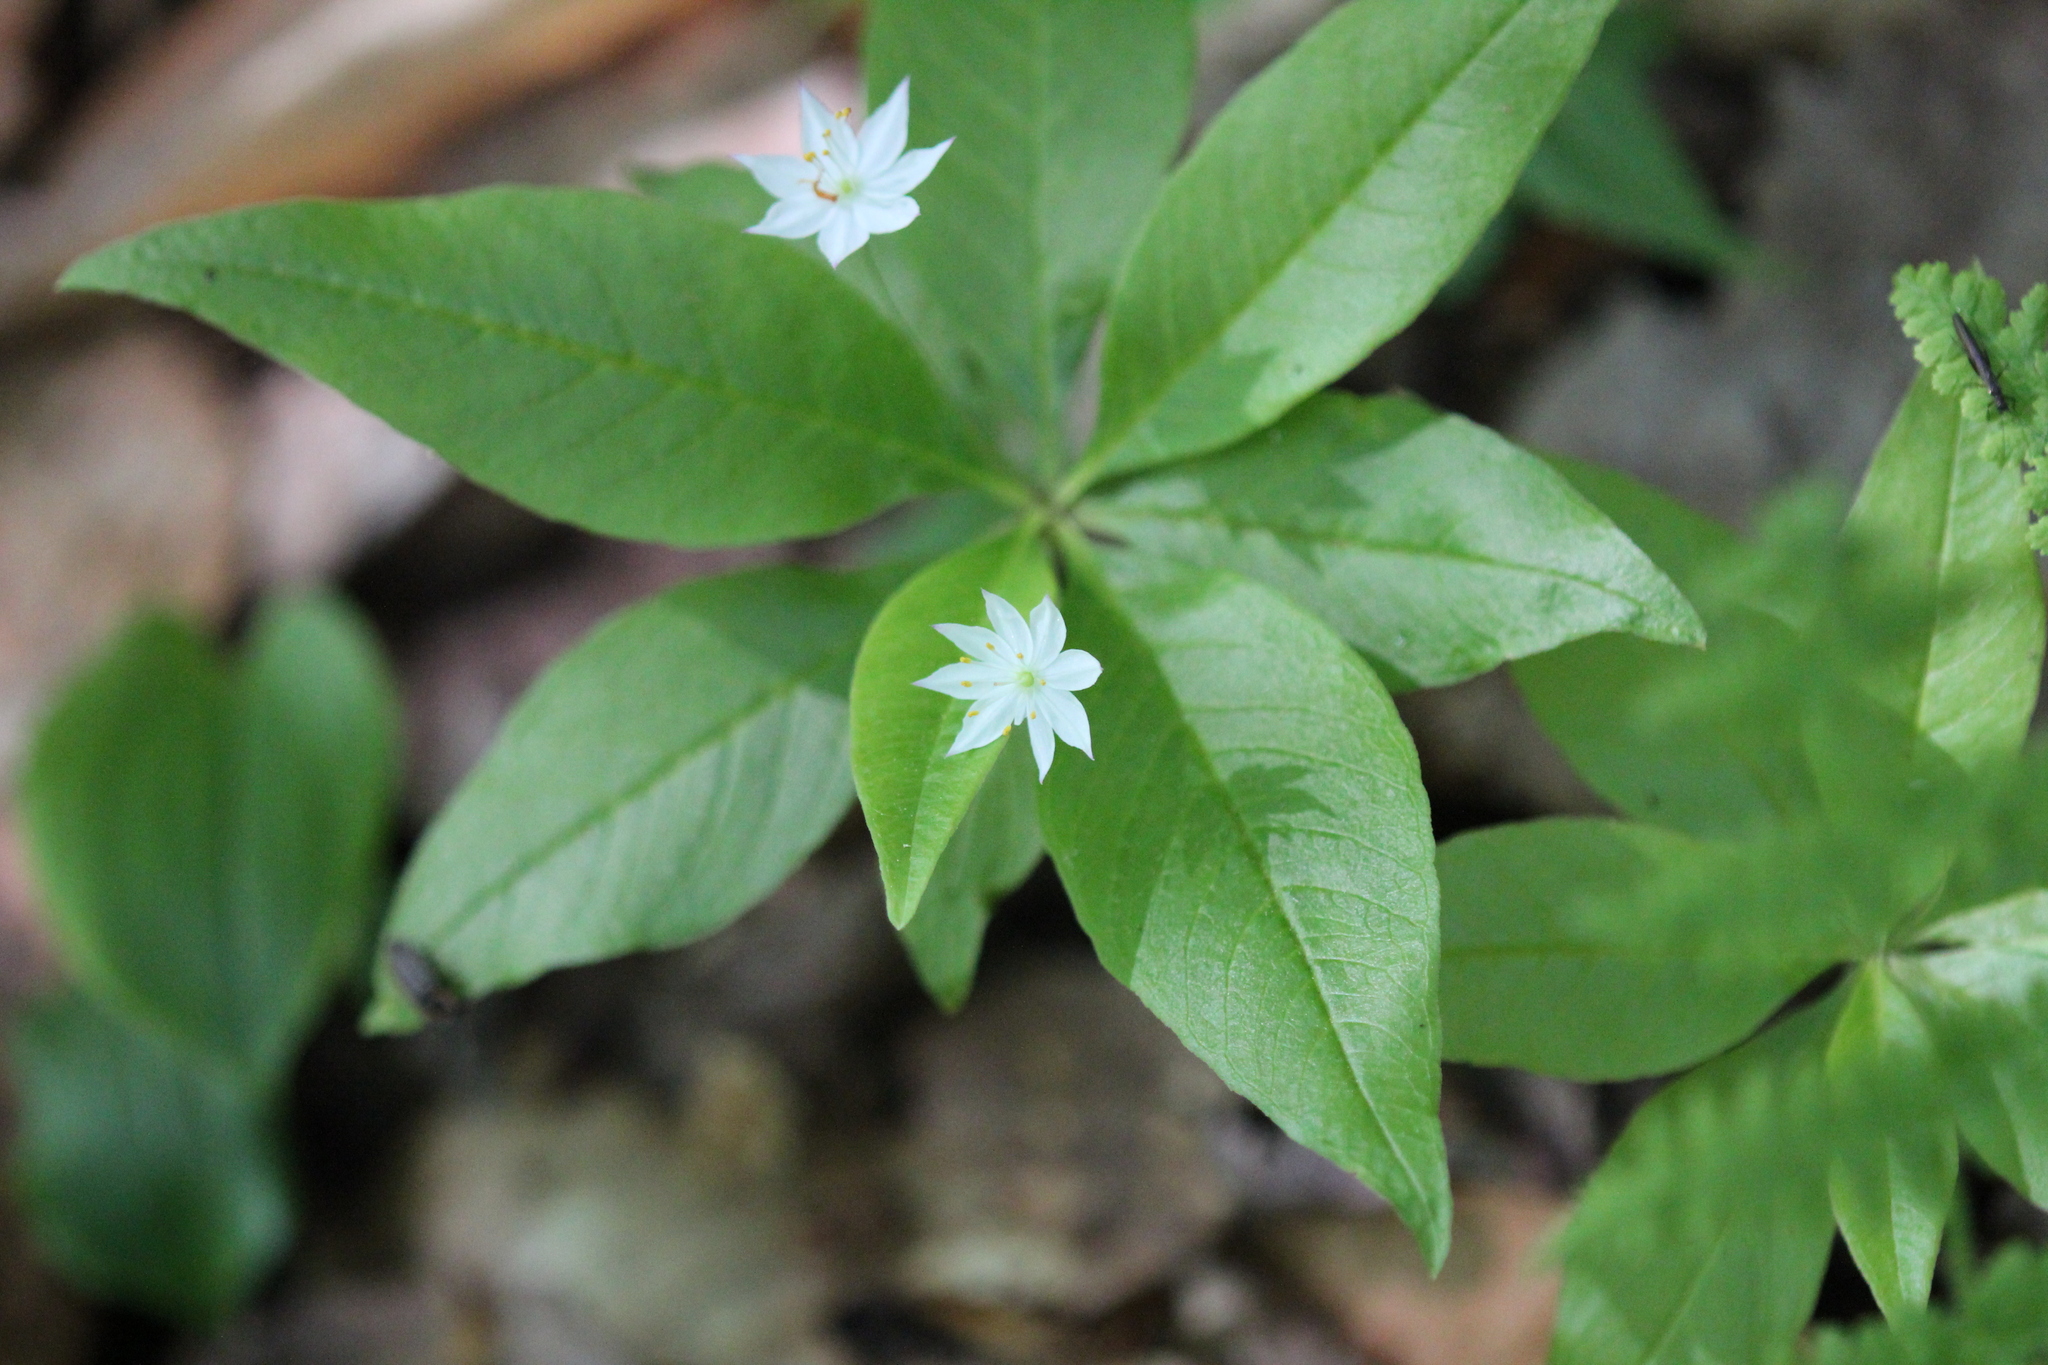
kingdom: Plantae
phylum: Tracheophyta
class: Magnoliopsida
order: Ericales
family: Primulaceae
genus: Lysimachia
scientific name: Lysimachia borealis
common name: American starflower
